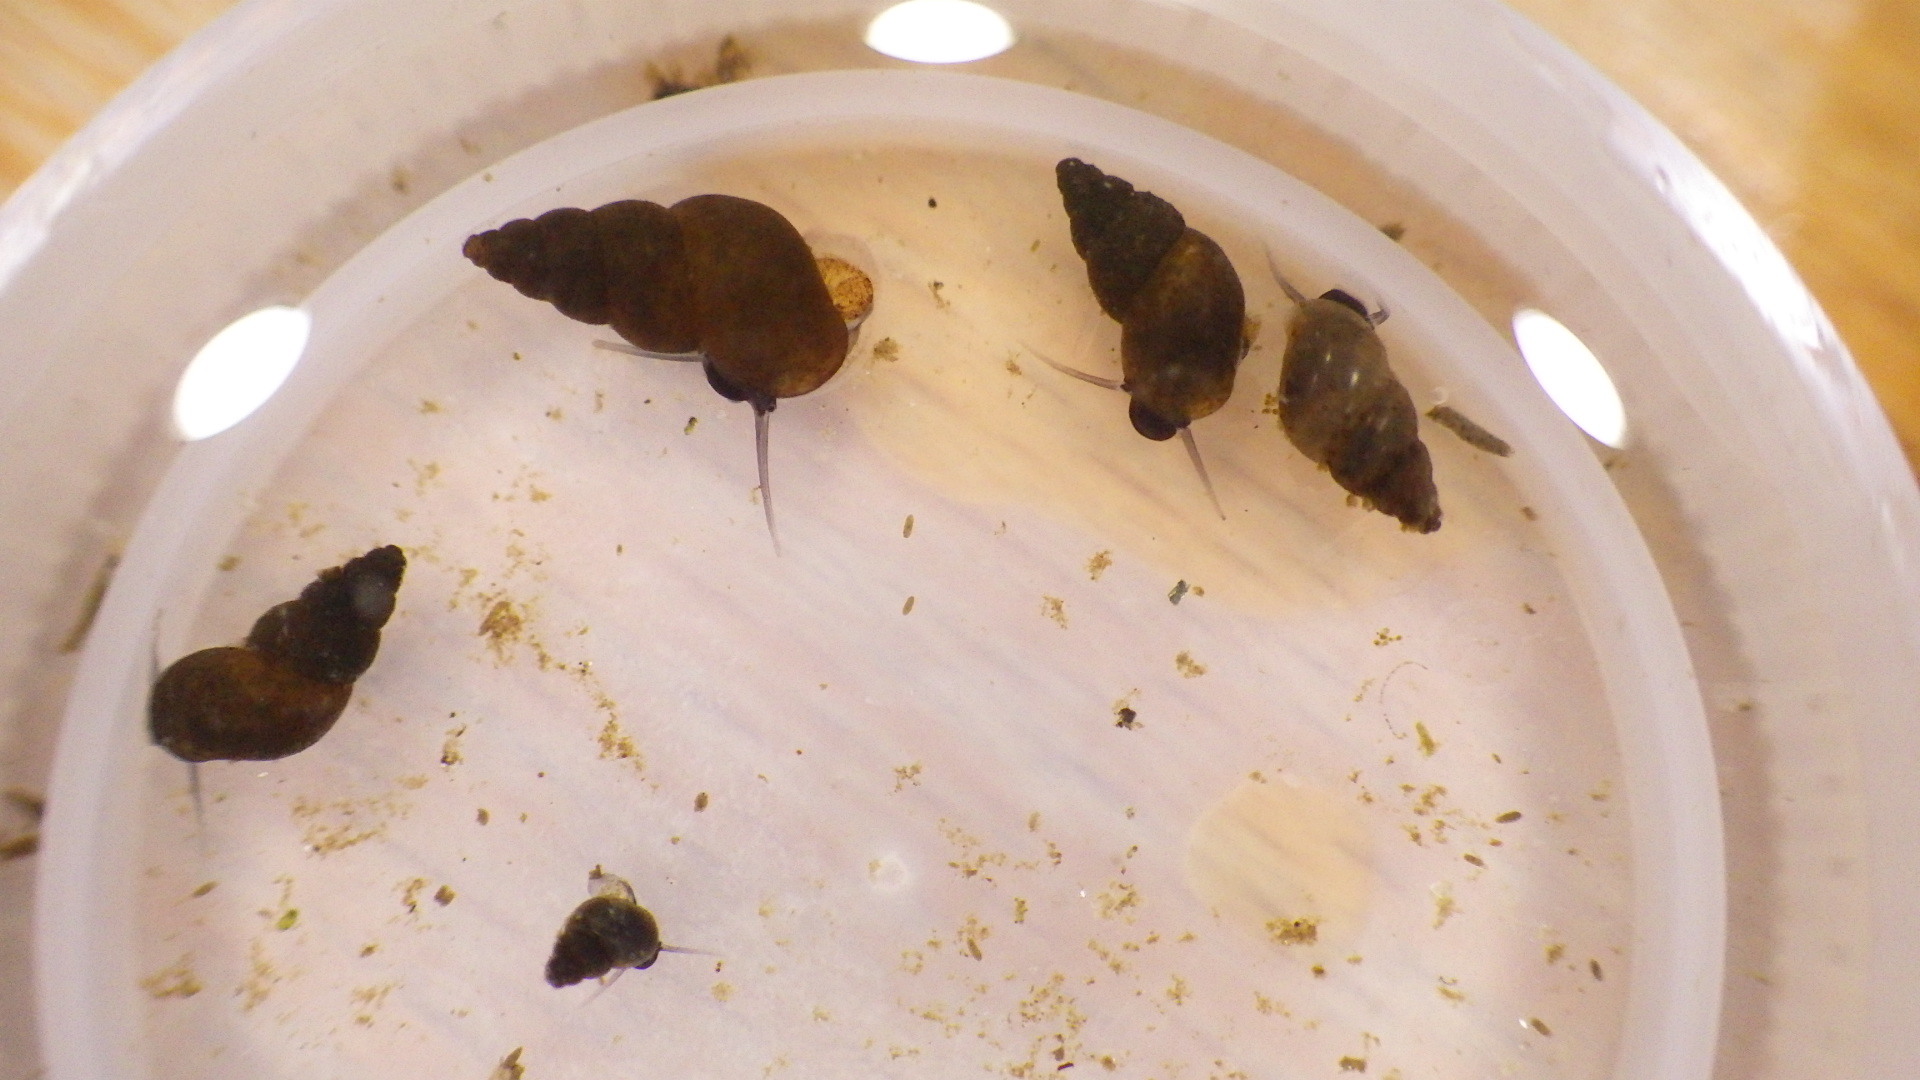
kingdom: Animalia
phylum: Mollusca
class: Gastropoda
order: Littorinimorpha
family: Tateidae
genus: Potamopyrgus
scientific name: Potamopyrgus antipodarum
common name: Jenkins' spire snail
